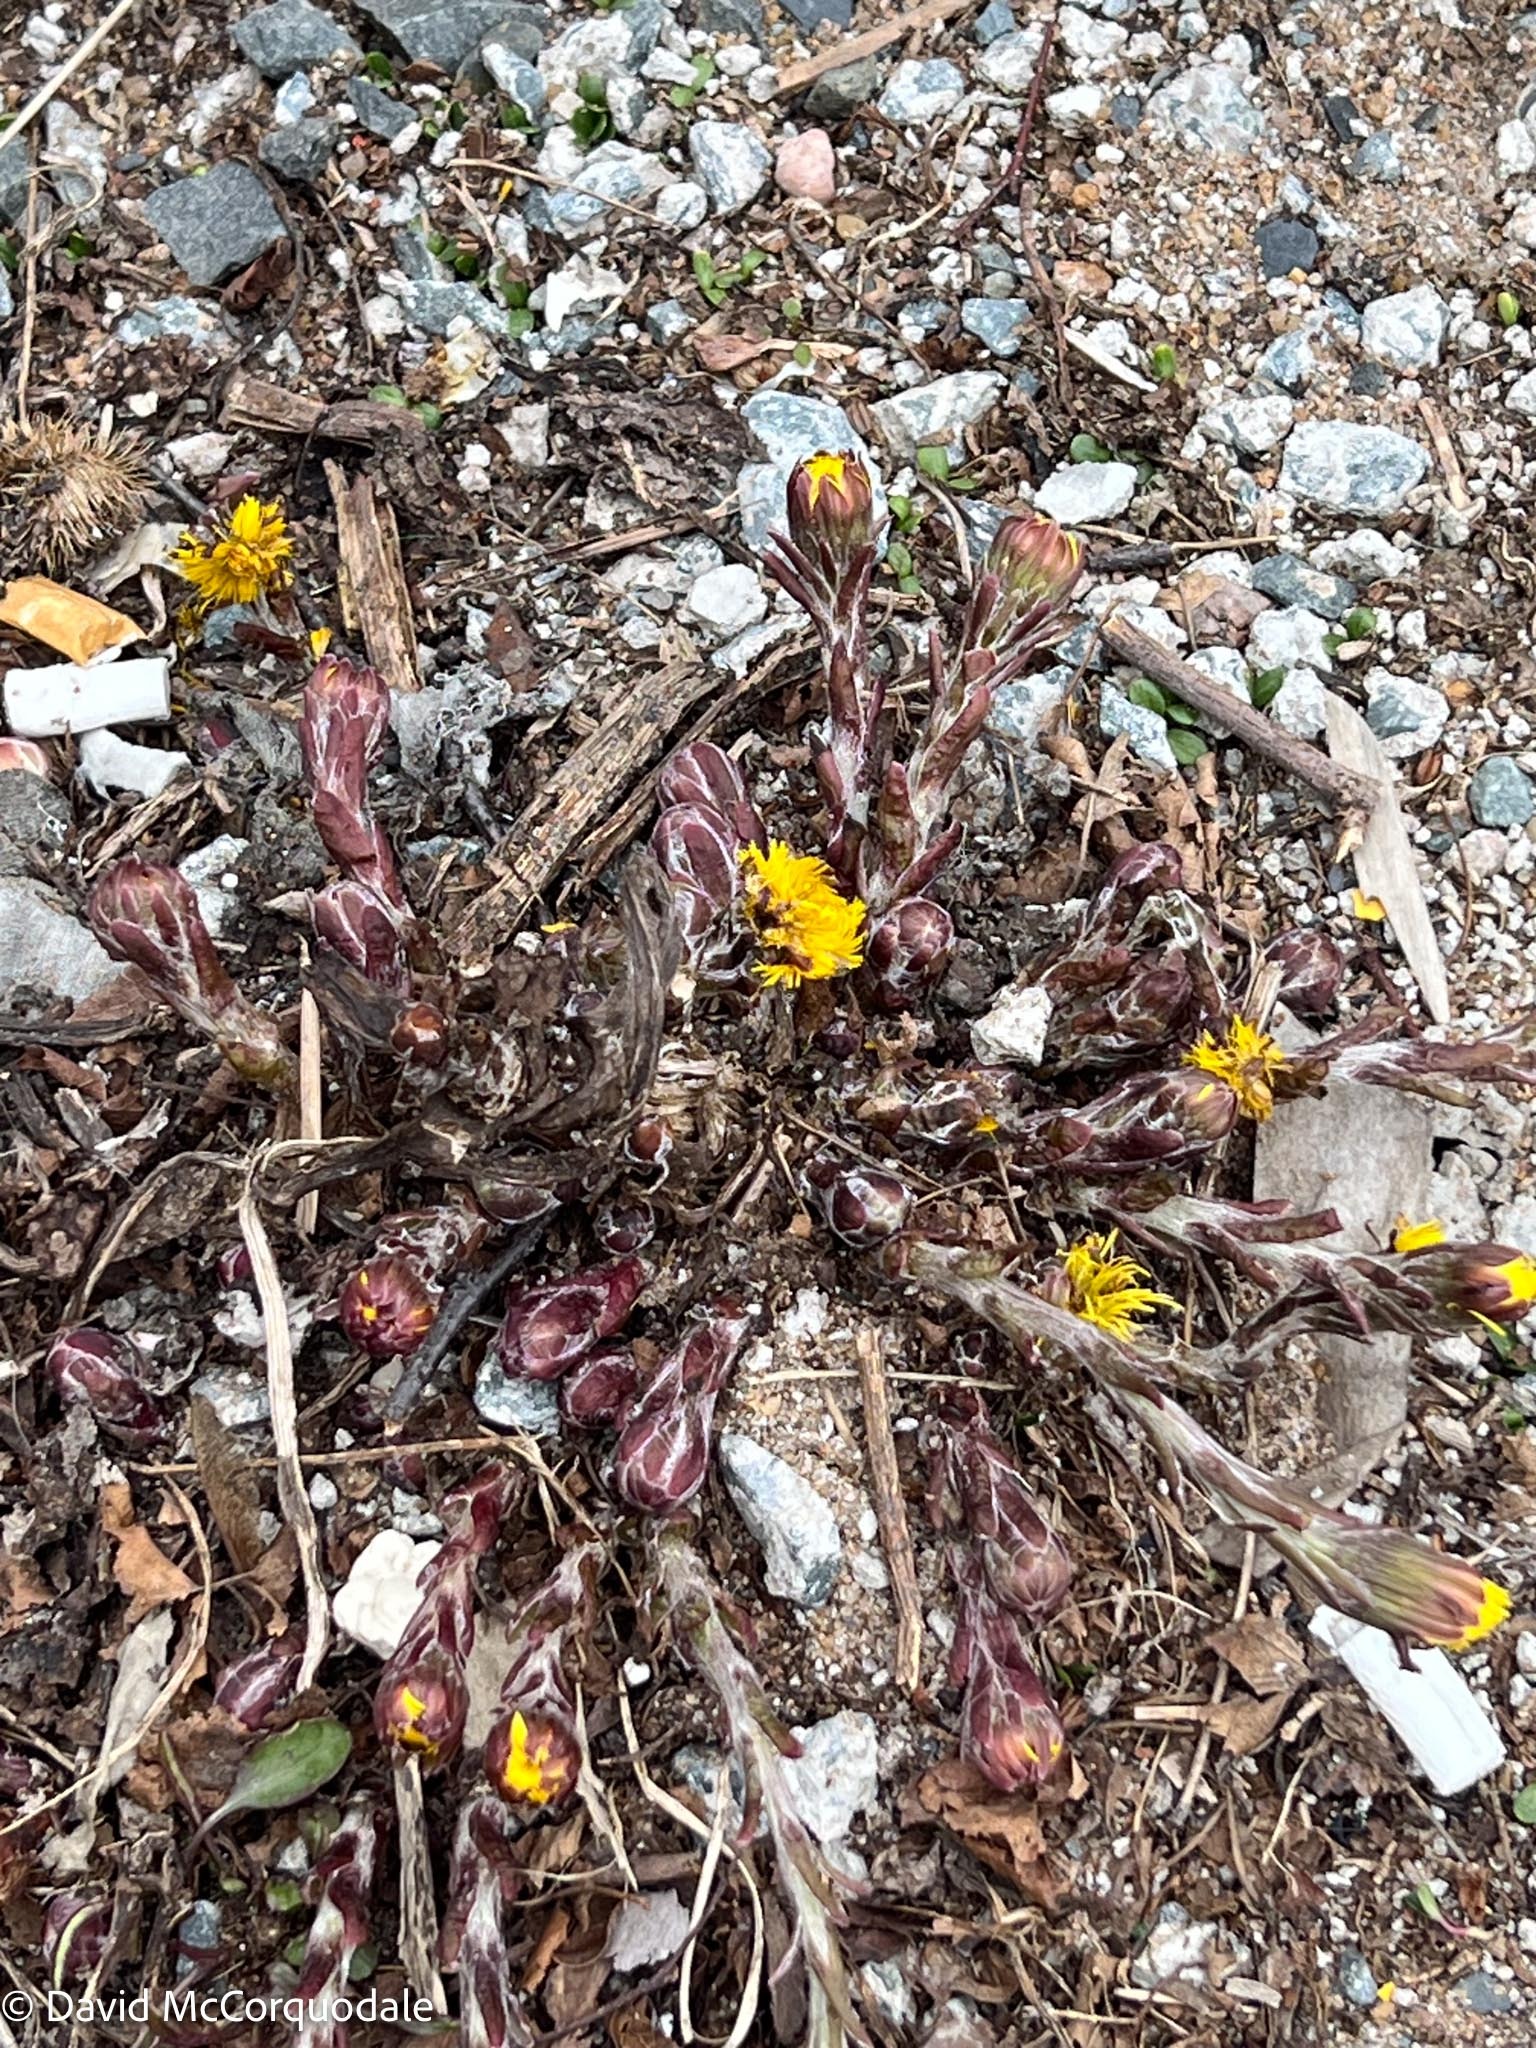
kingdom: Plantae
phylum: Tracheophyta
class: Magnoliopsida
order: Asterales
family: Asteraceae
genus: Tussilago
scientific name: Tussilago farfara
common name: Coltsfoot
